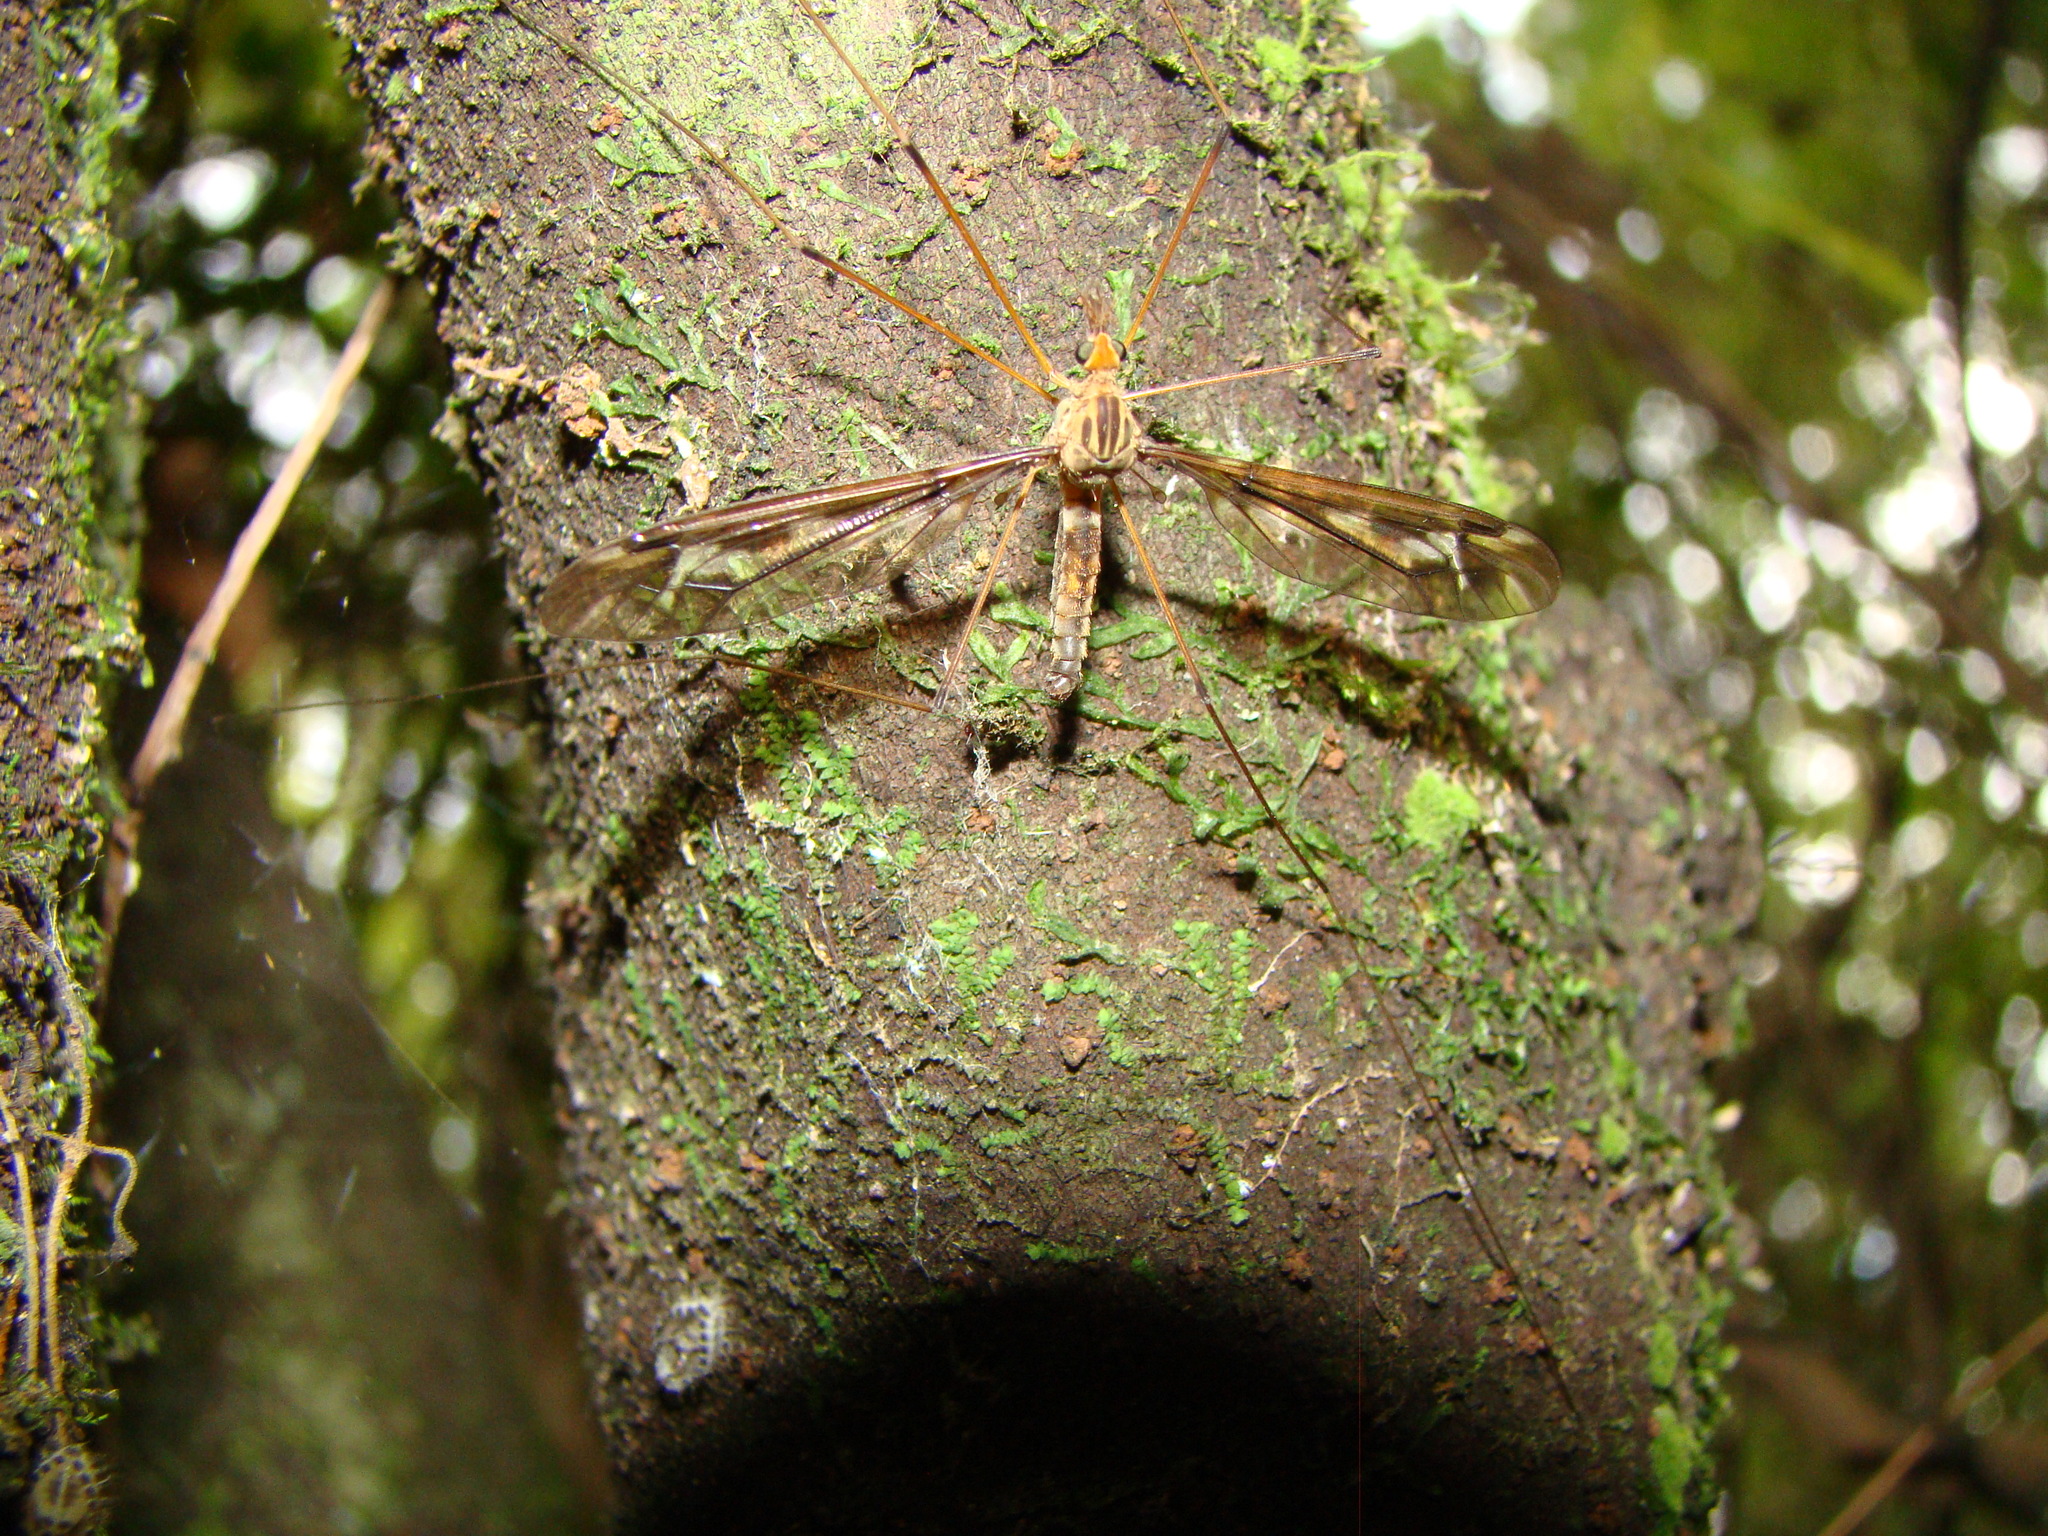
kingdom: Animalia
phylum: Arthropoda
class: Insecta
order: Diptera
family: Tipulidae
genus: Leptotarsus
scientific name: Leptotarsus huttoni
